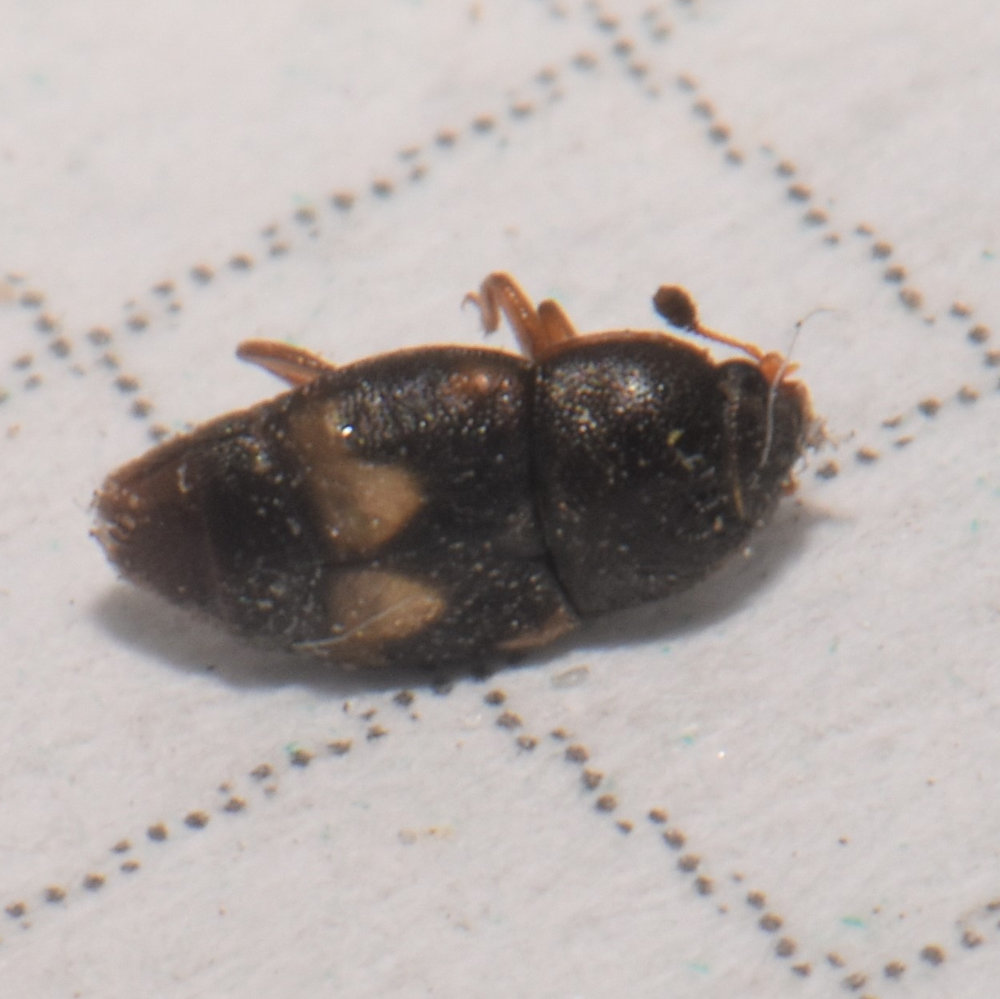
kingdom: Animalia
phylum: Arthropoda
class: Insecta
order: Coleoptera
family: Nitidulidae
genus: Carpophilus
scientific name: Carpophilus hemipterus
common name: Dried fruit beetle
